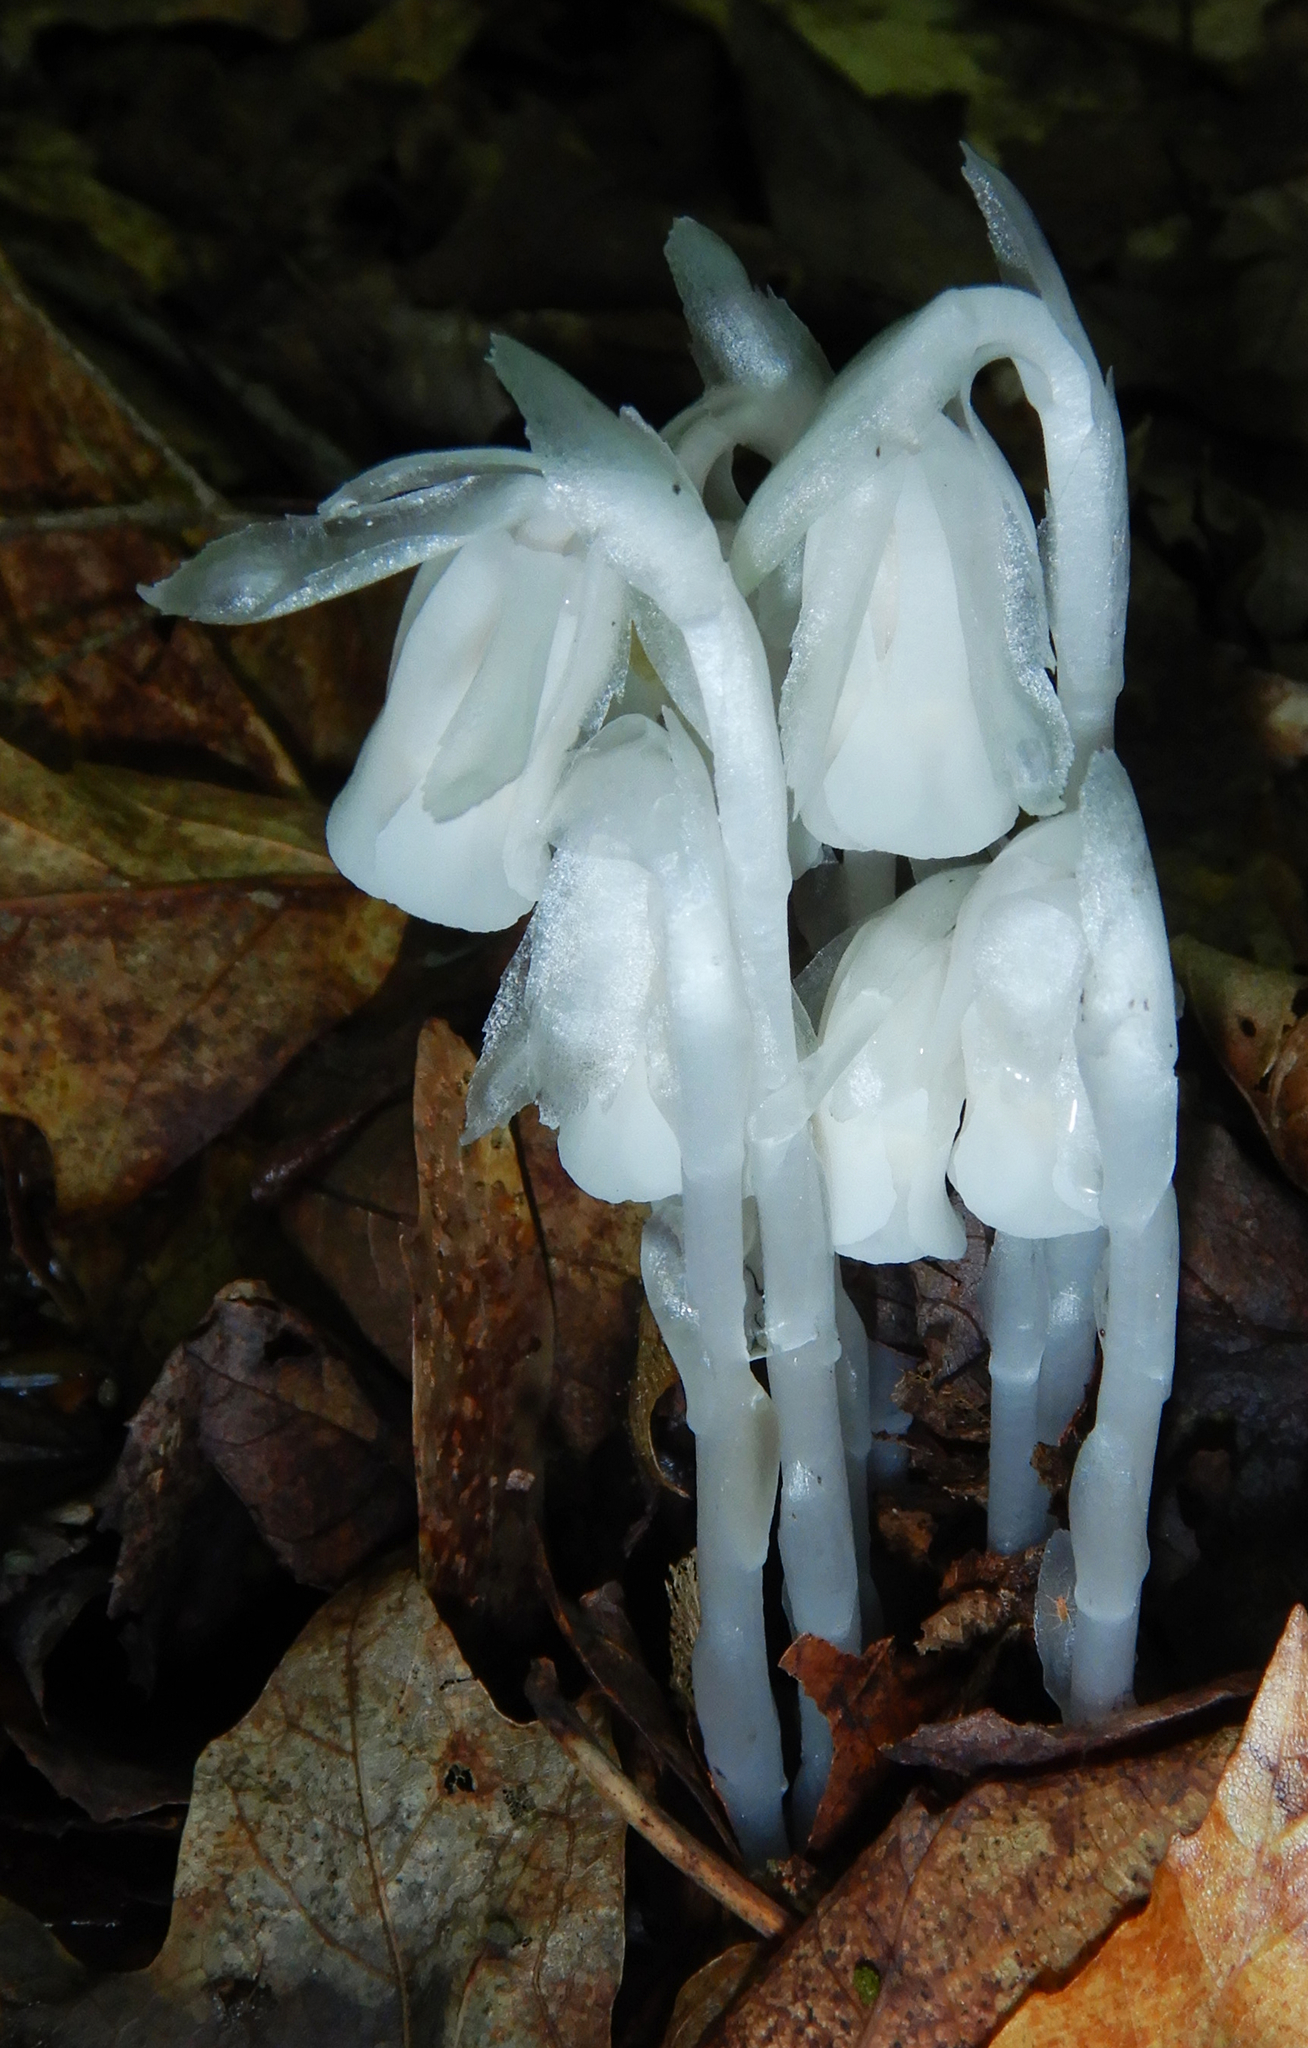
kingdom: Plantae
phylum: Tracheophyta
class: Magnoliopsida
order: Ericales
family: Ericaceae
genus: Monotropa
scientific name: Monotropa uniflora
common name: Convulsion root
